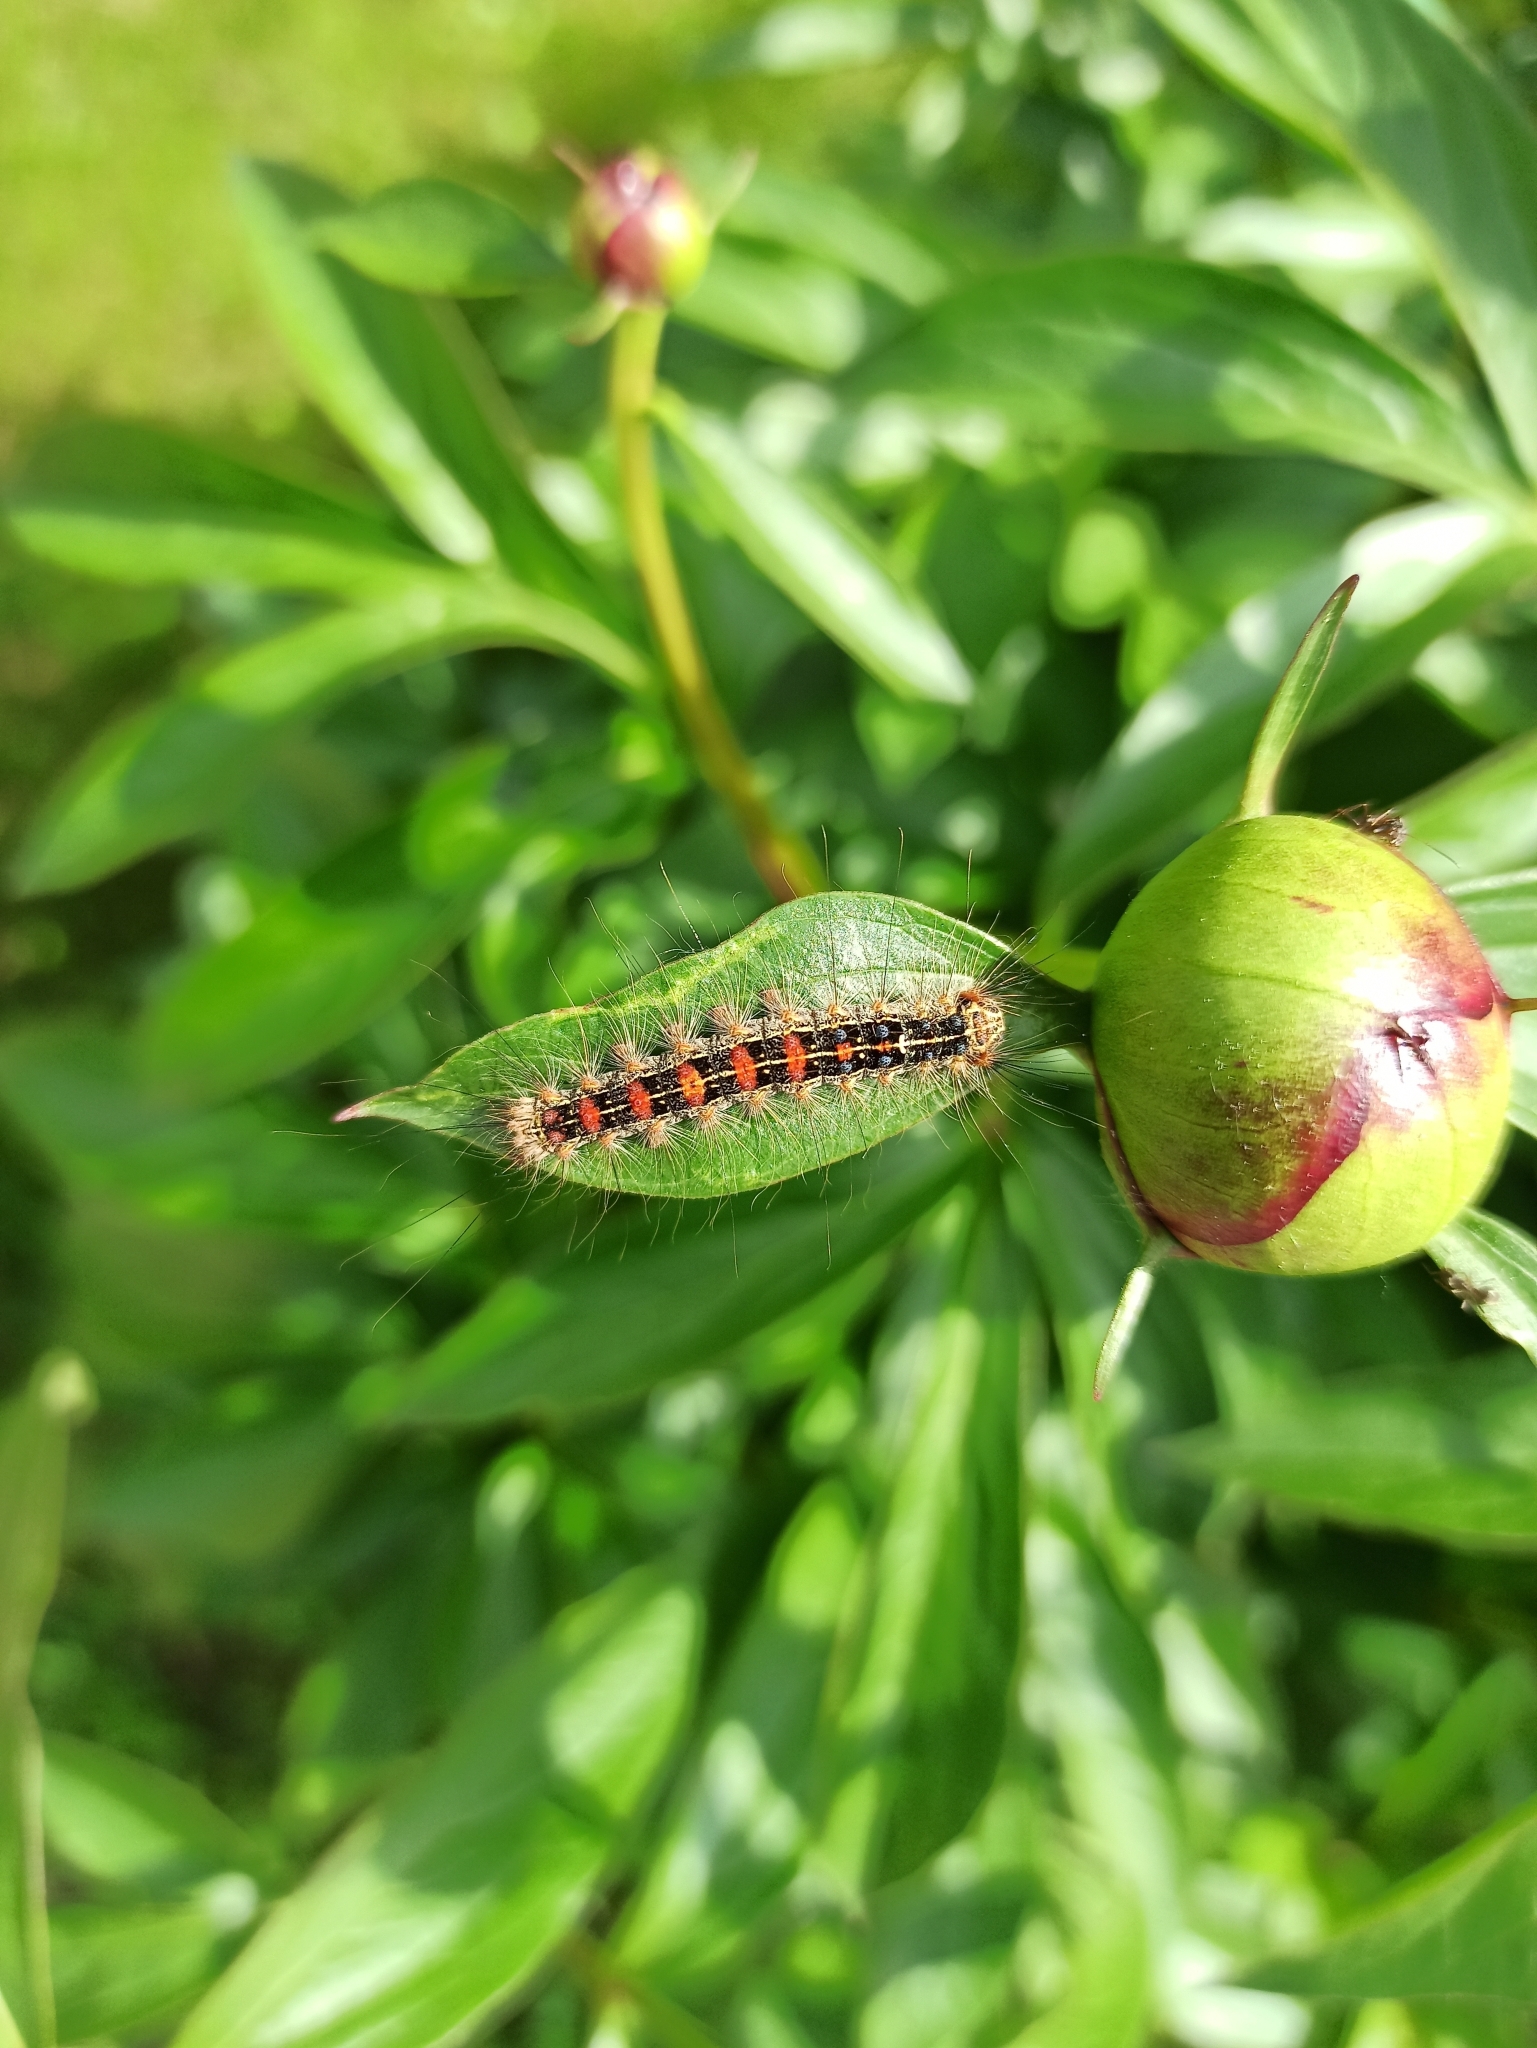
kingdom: Animalia
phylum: Arthropoda
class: Insecta
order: Lepidoptera
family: Erebidae
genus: Lymantria
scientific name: Lymantria dispar
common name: Gypsy moth
